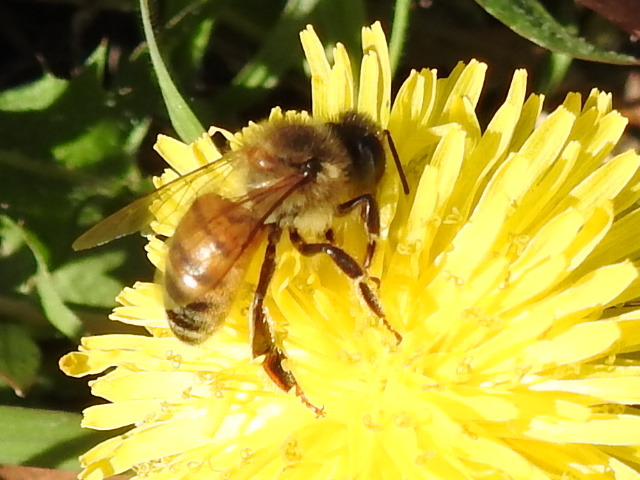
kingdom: Animalia
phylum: Arthropoda
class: Insecta
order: Hymenoptera
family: Apidae
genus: Apis
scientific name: Apis mellifera
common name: Honey bee
